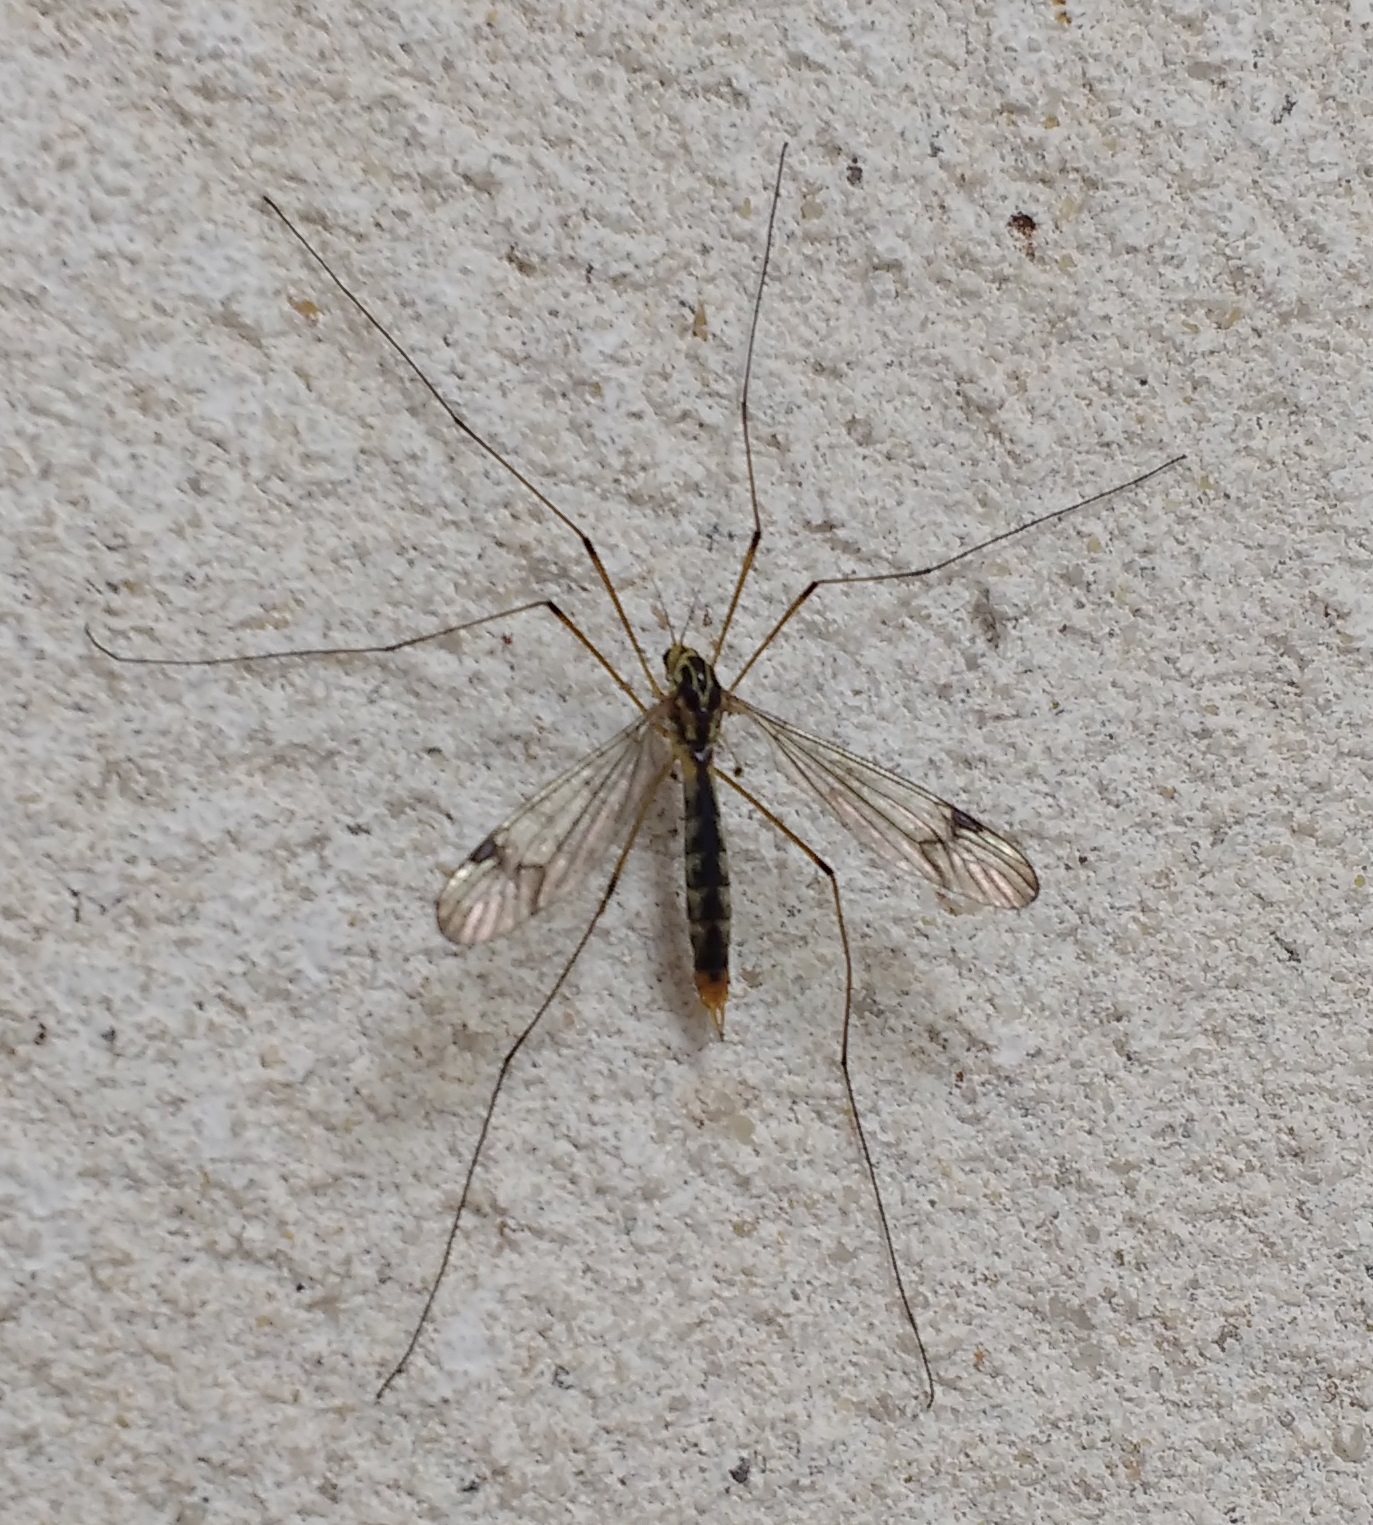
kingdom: Animalia
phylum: Arthropoda
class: Insecta
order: Diptera
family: Tipulidae
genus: Nephrotoma
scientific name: Nephrotoma quadrifaria
